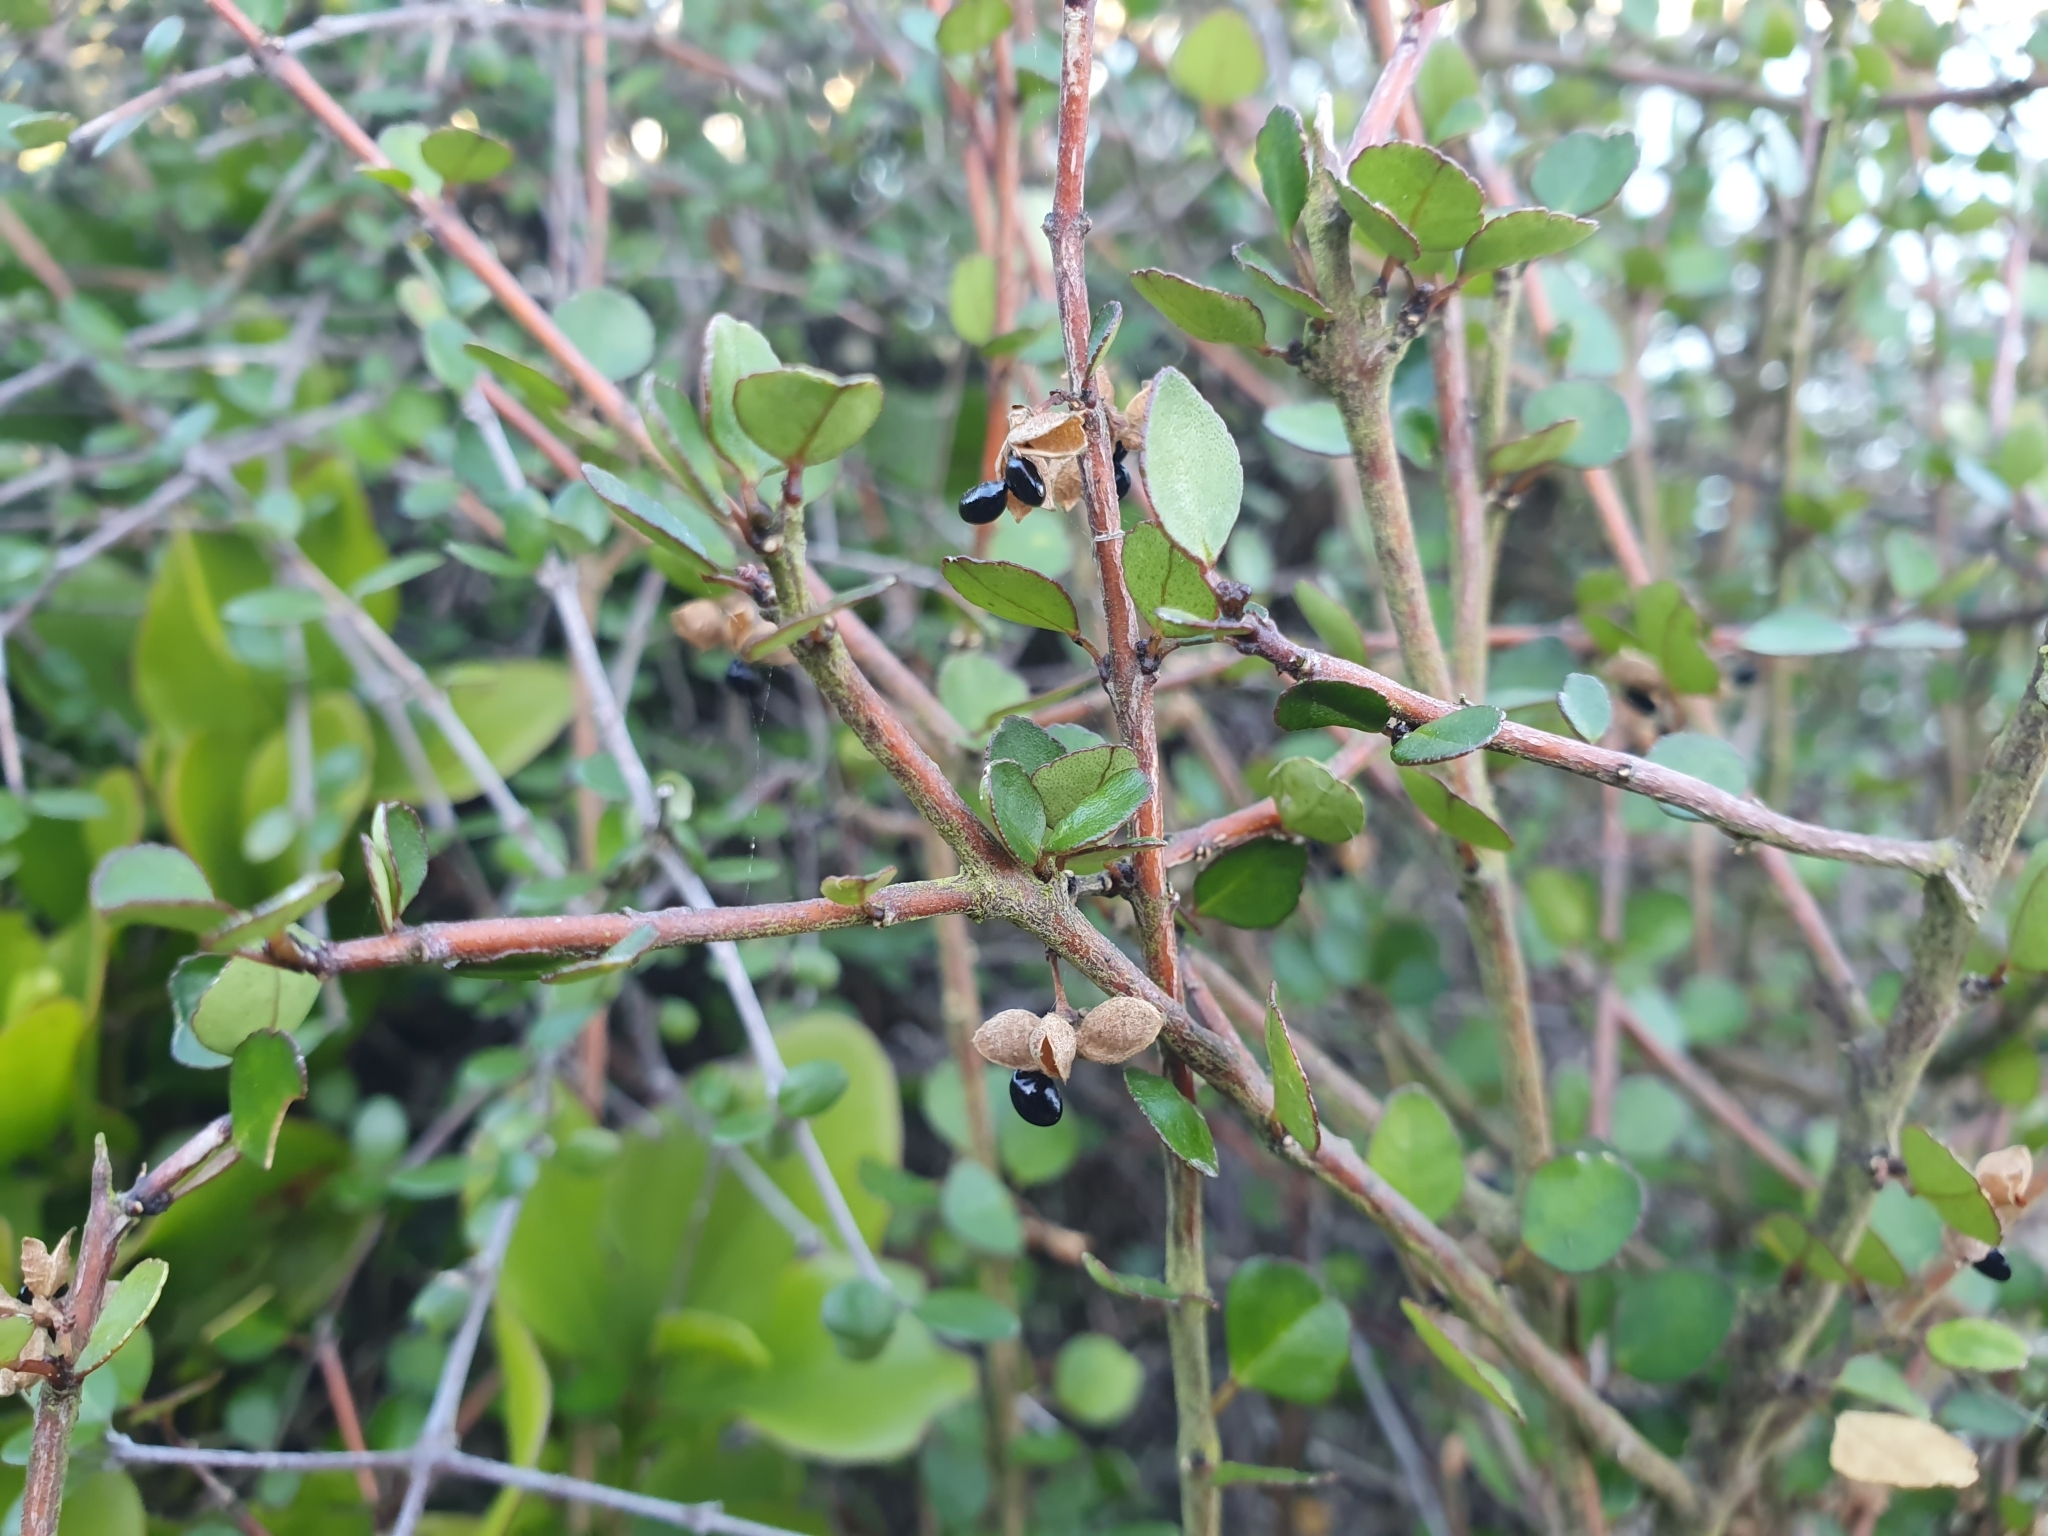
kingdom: Plantae
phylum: Tracheophyta
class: Magnoliopsida
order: Sapindales
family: Rutaceae
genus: Melicope
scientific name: Melicope simplex
